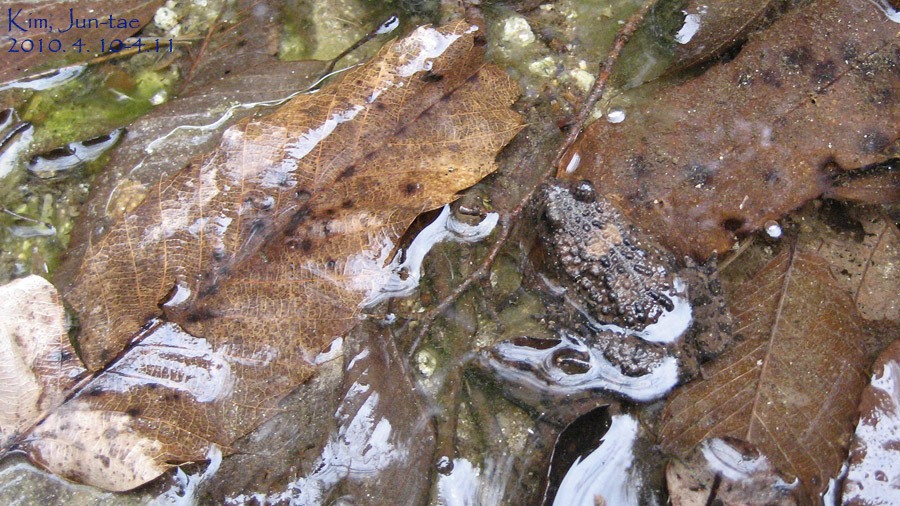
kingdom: Animalia
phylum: Chordata
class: Amphibia
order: Anura
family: Bombinatoridae
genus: Bombina
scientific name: Bombina orientalis
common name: Oriental firebelly toad
